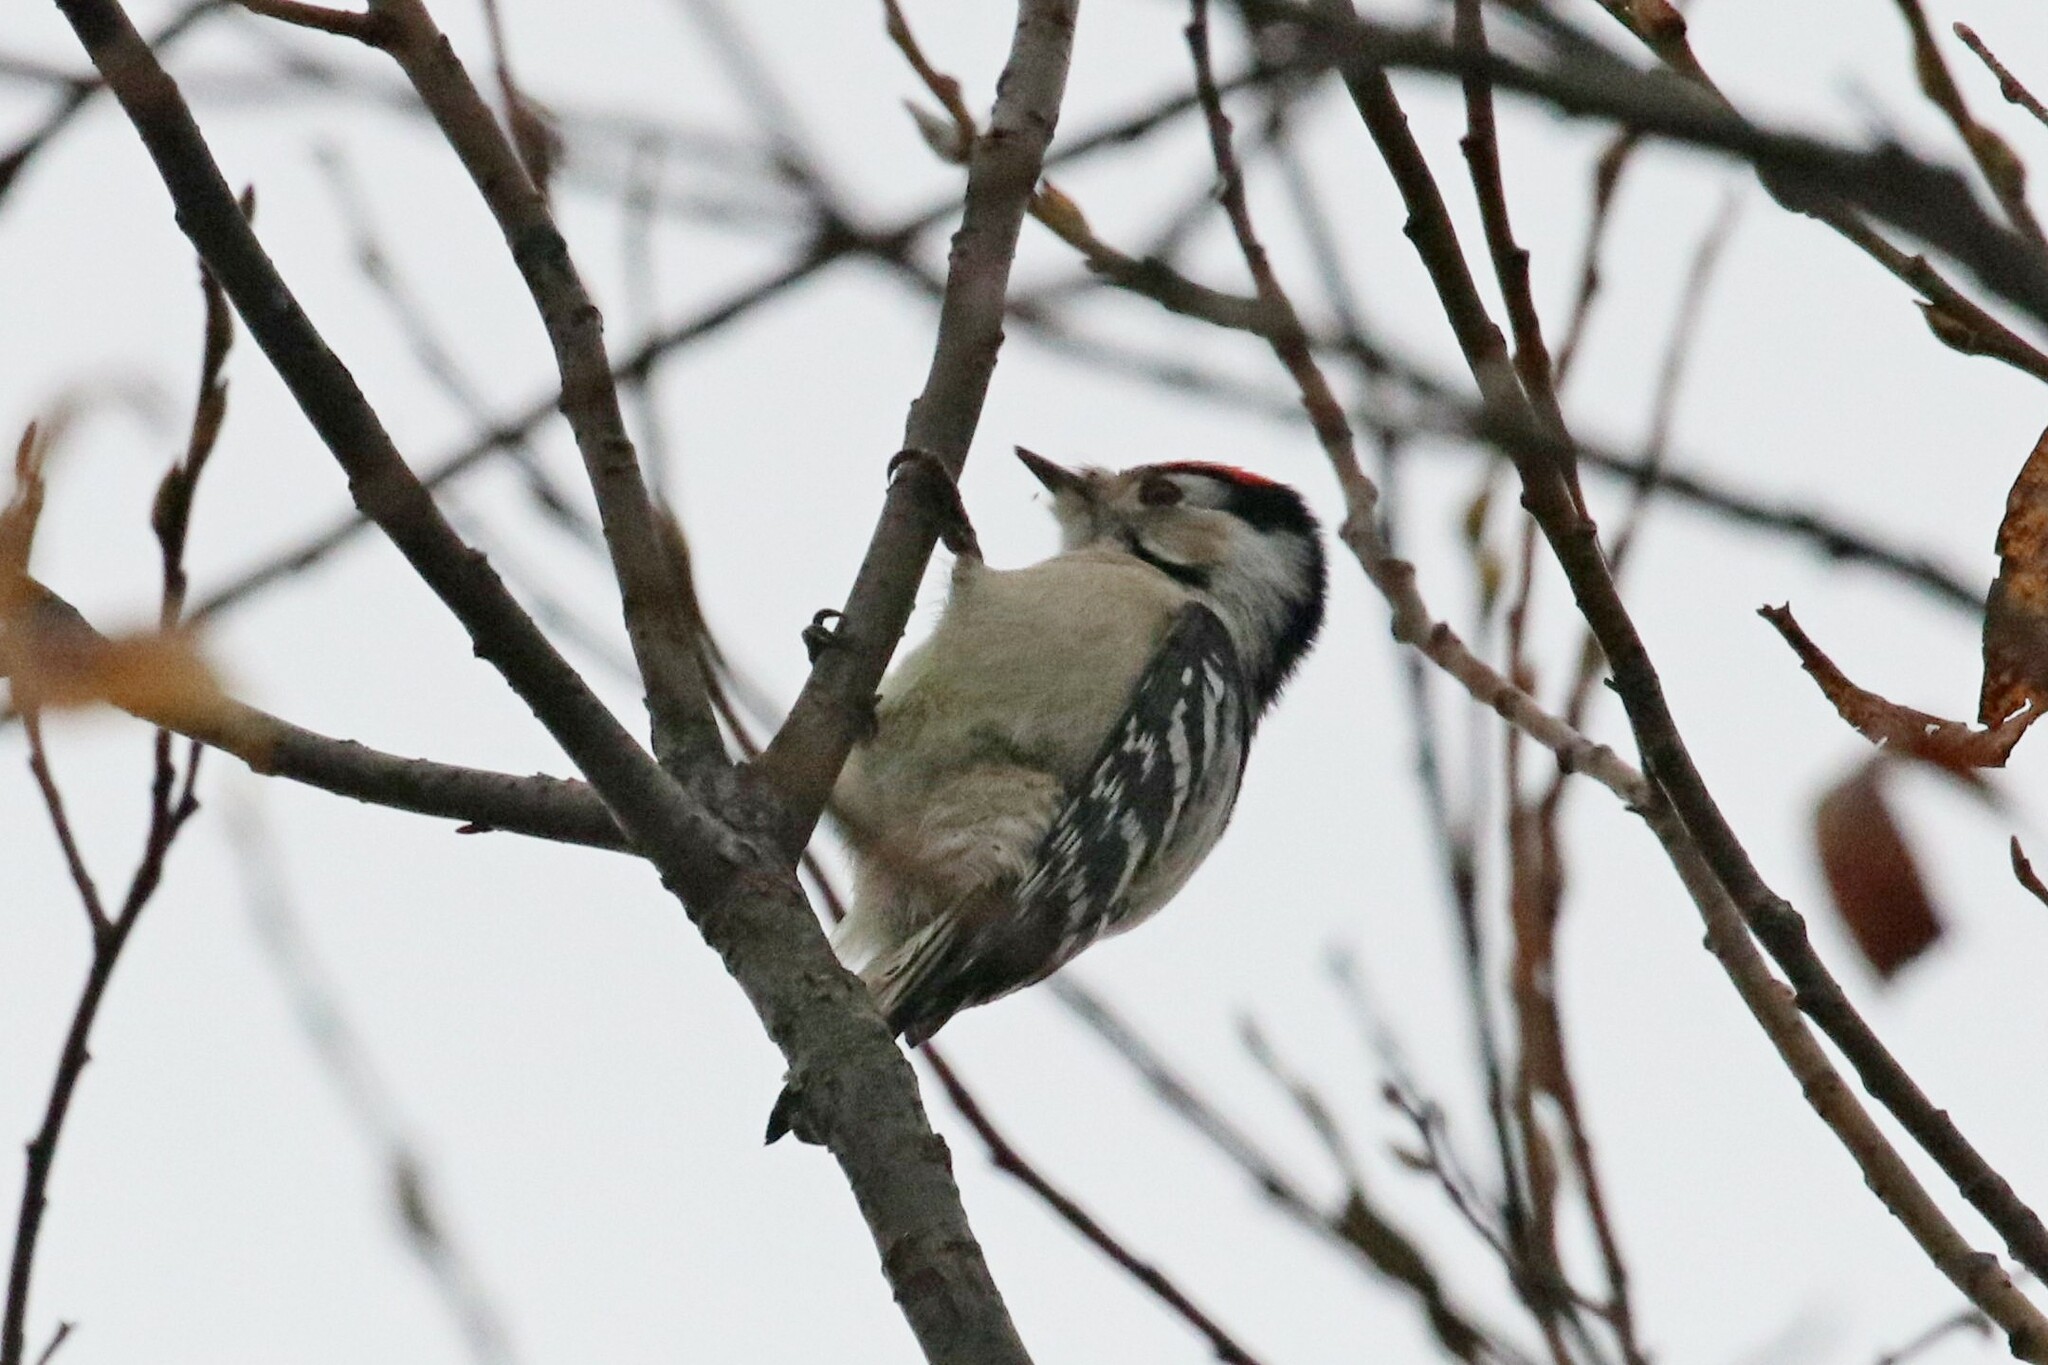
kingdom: Animalia
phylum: Chordata
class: Aves
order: Piciformes
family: Picidae
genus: Dryobates
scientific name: Dryobates minor
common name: Lesser spotted woodpecker
